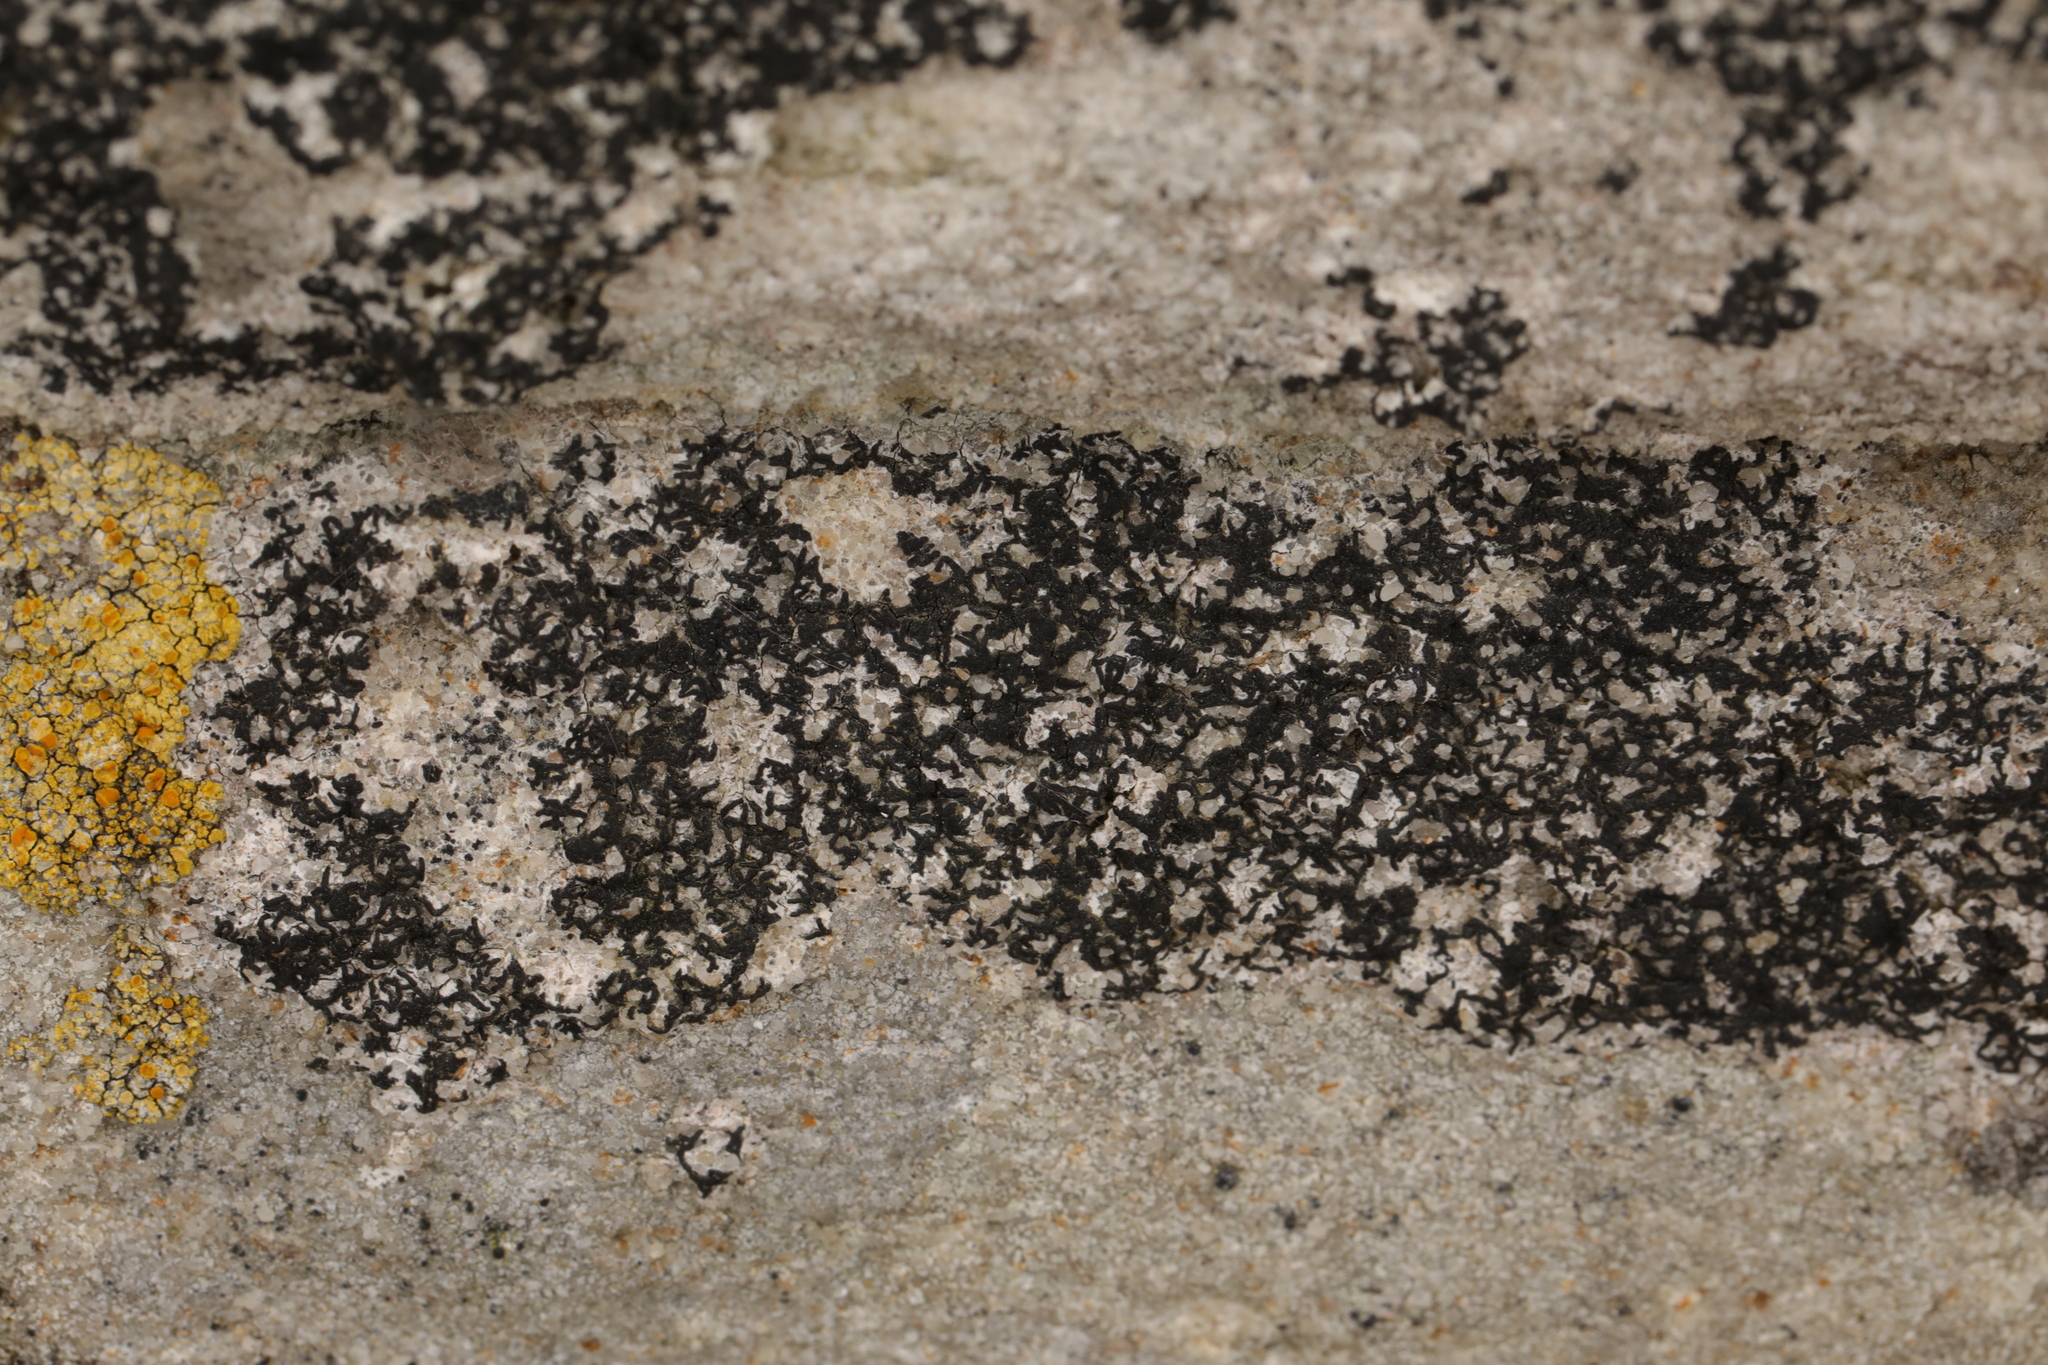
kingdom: Fungi
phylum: Ascomycota
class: Arthoniomycetes
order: Arthoniales
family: Arthoniaceae
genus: Arthonia
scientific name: Arthonia calcarea
